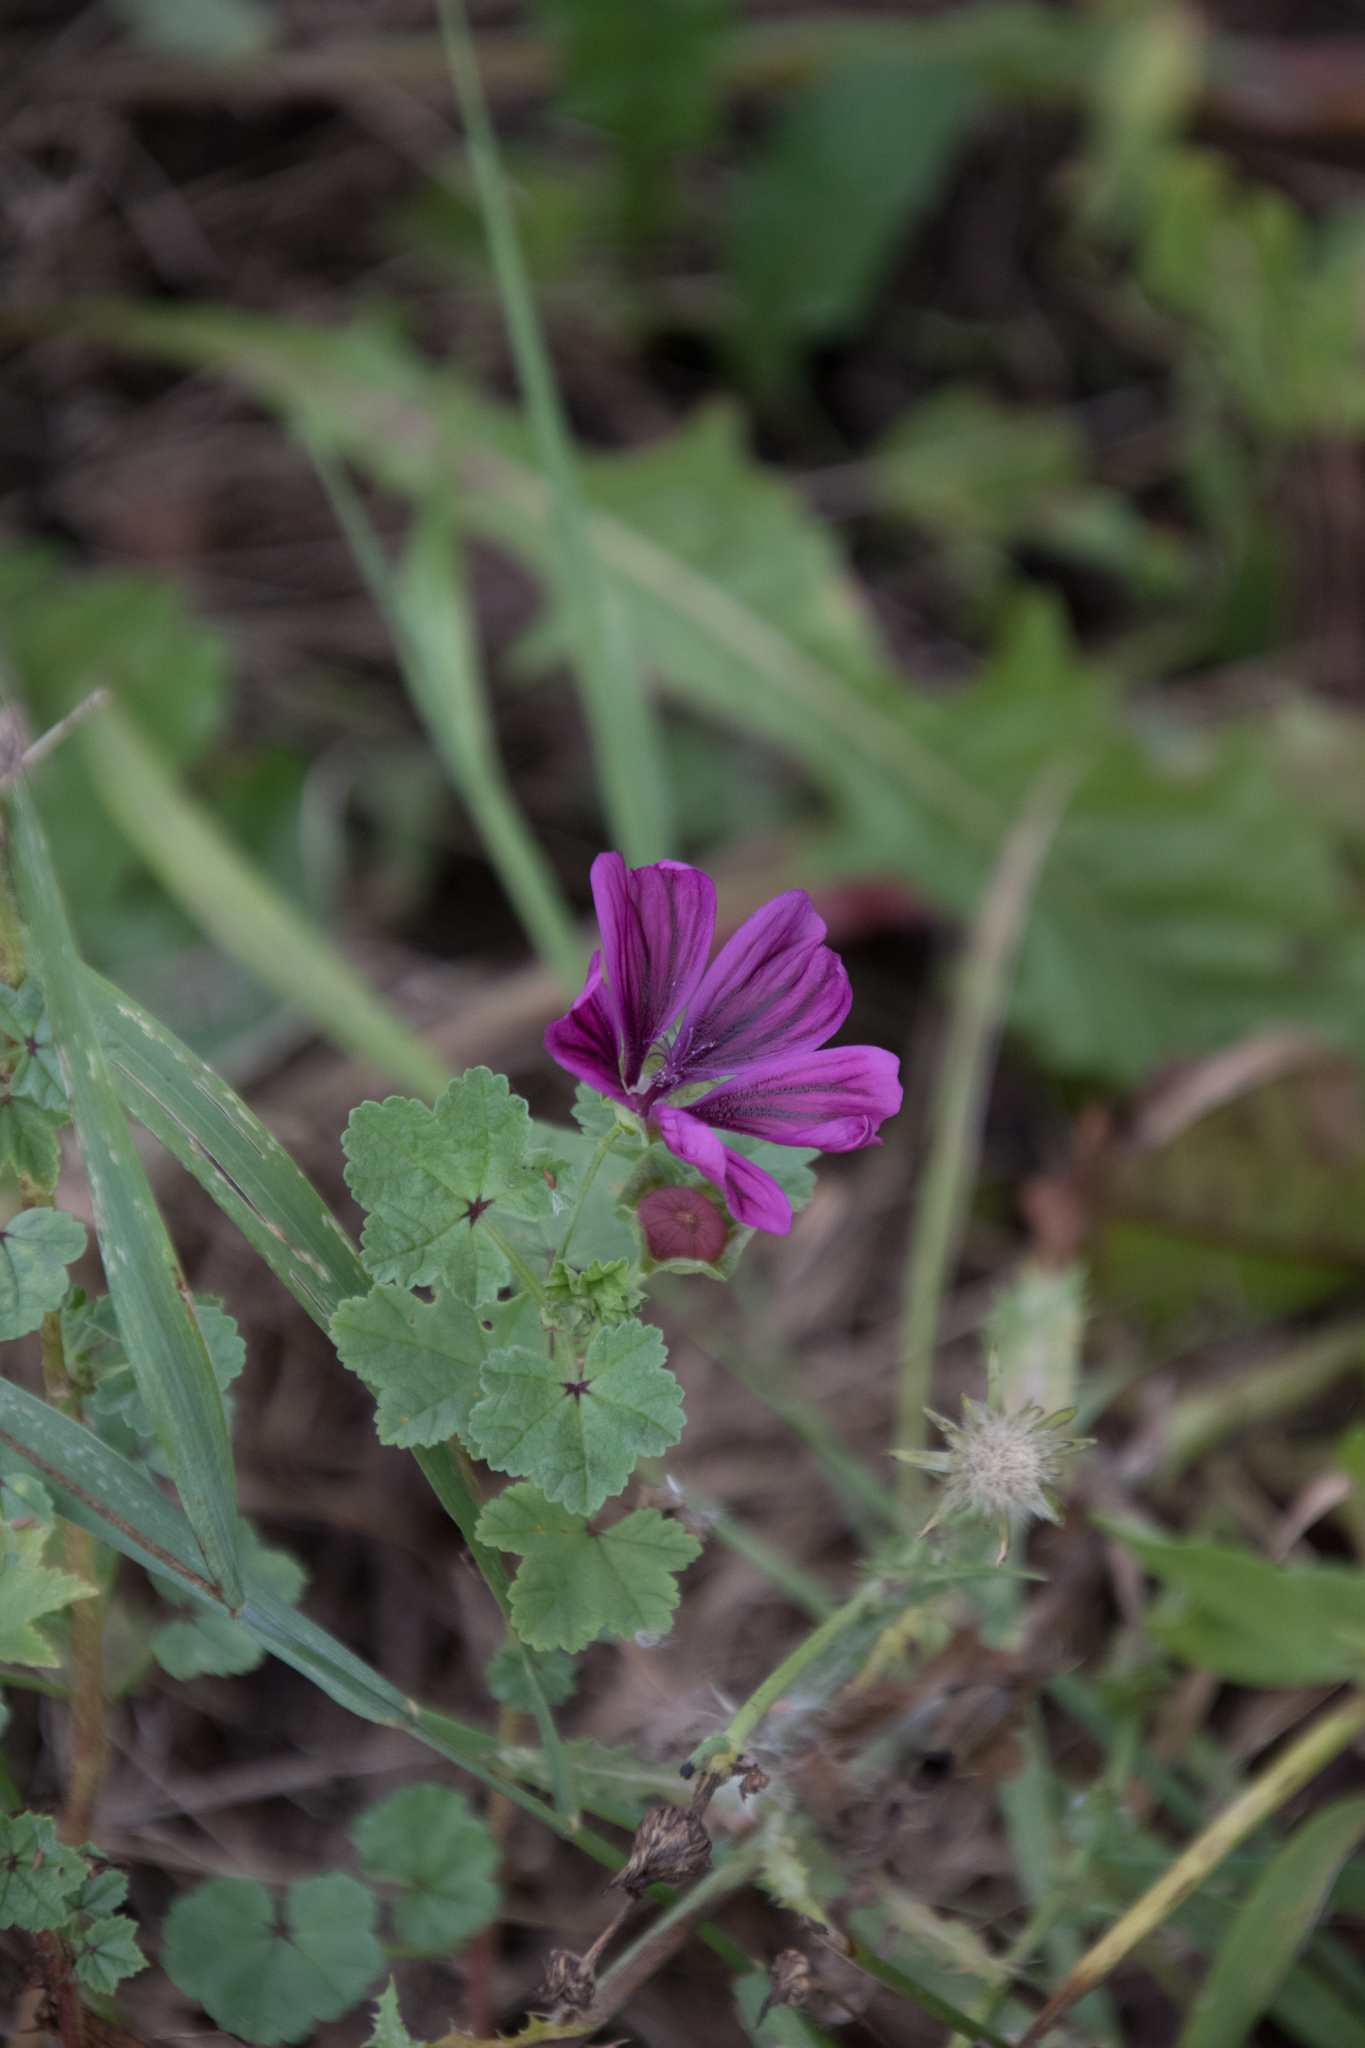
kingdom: Plantae
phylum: Tracheophyta
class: Magnoliopsida
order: Malvales
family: Malvaceae
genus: Malva
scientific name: Malva sylvestris
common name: Common mallow
